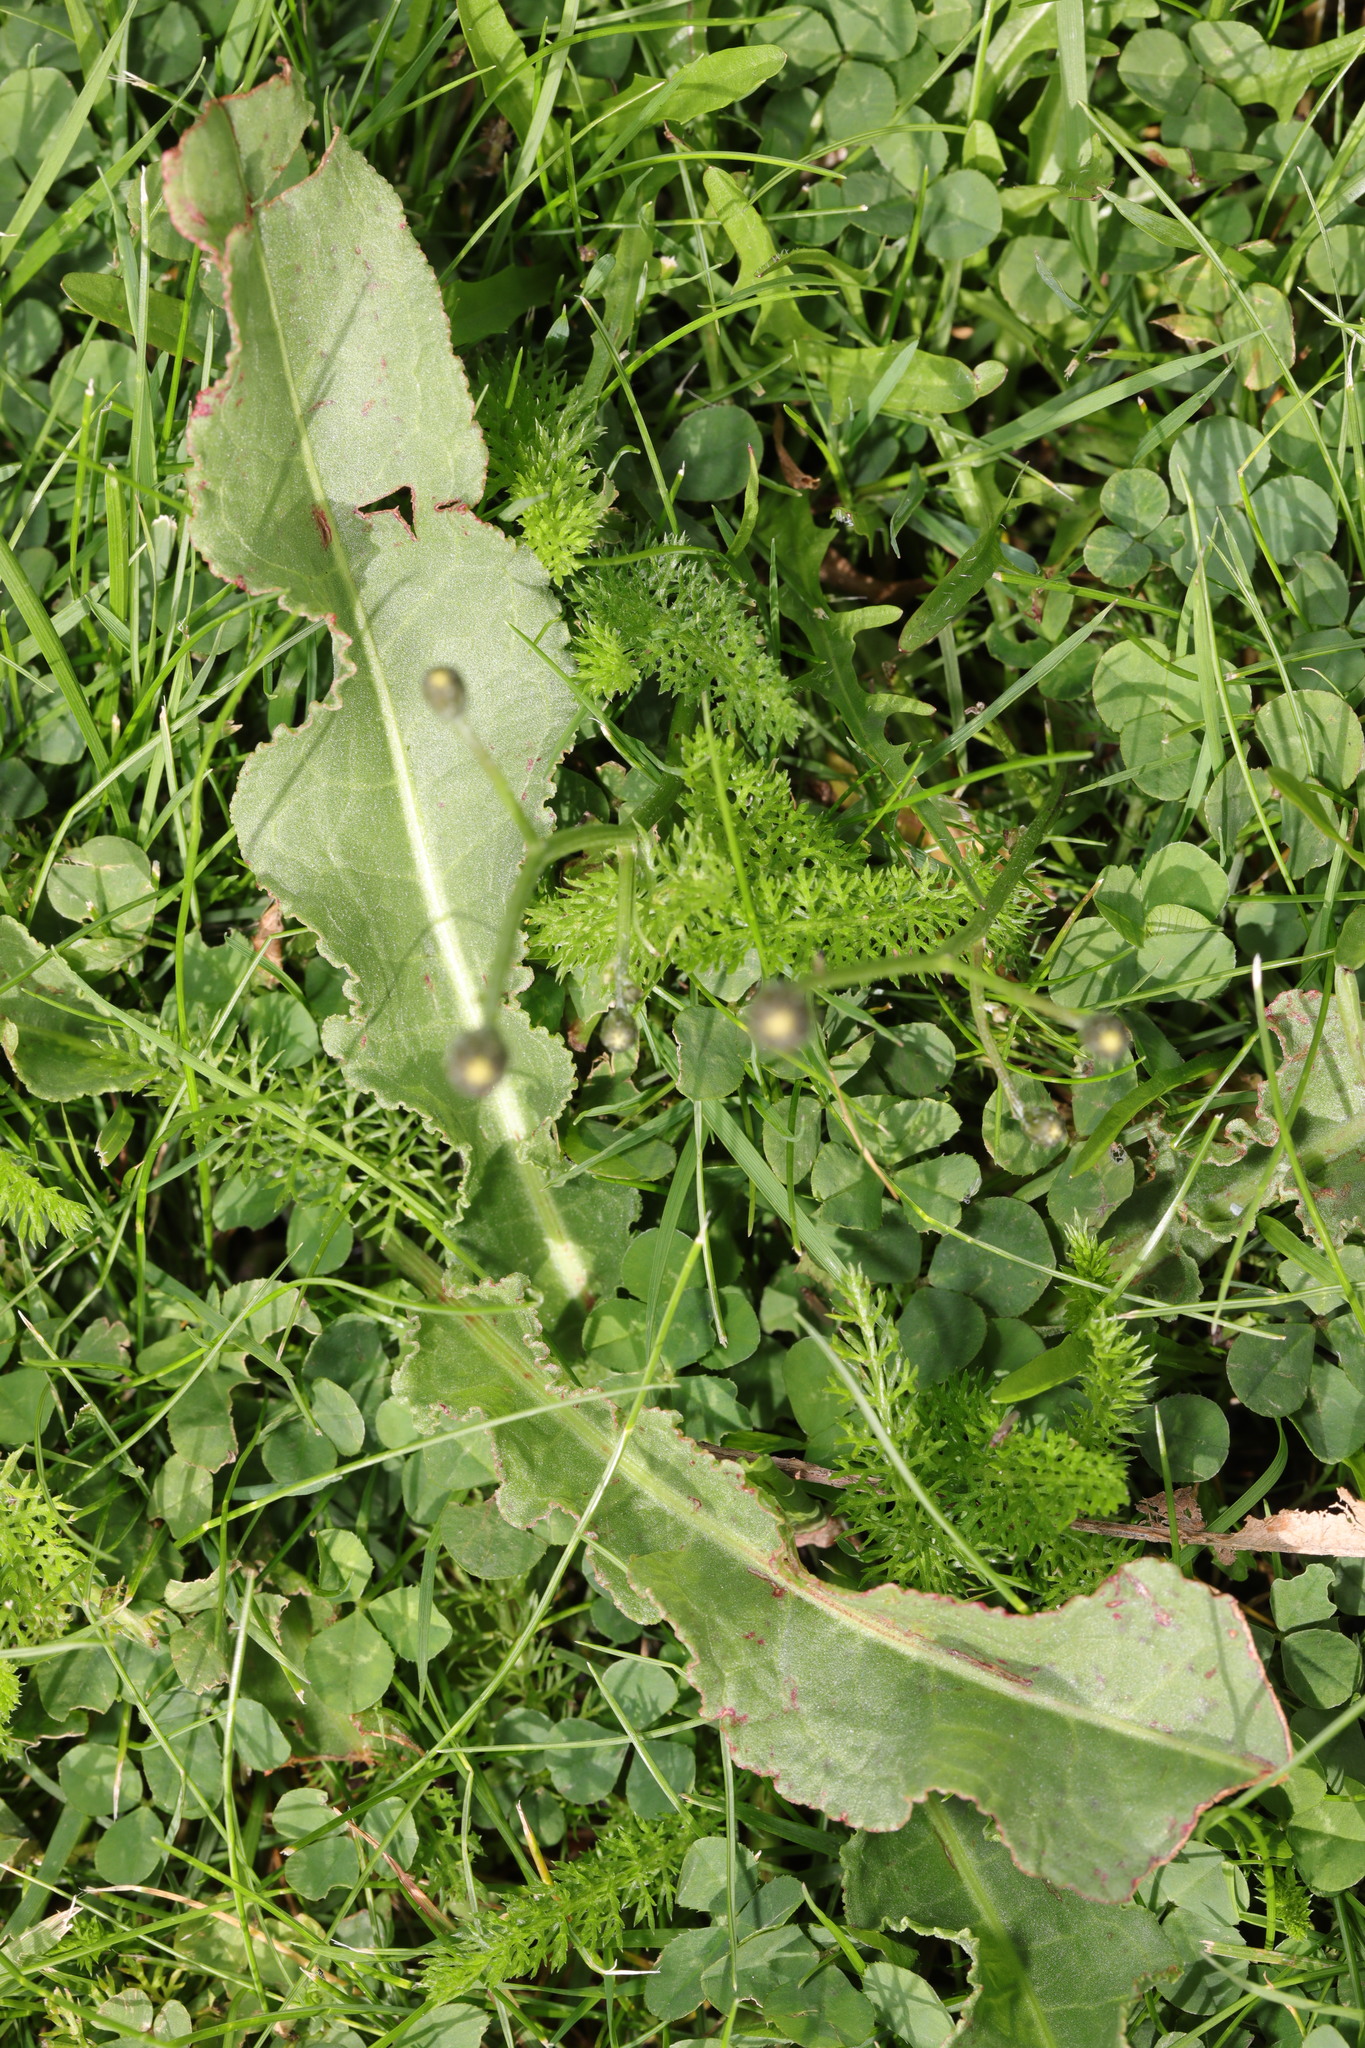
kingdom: Plantae
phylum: Tracheophyta
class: Magnoliopsida
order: Caryophyllales
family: Polygonaceae
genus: Rumex
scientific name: Rumex crispus
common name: Curled dock
